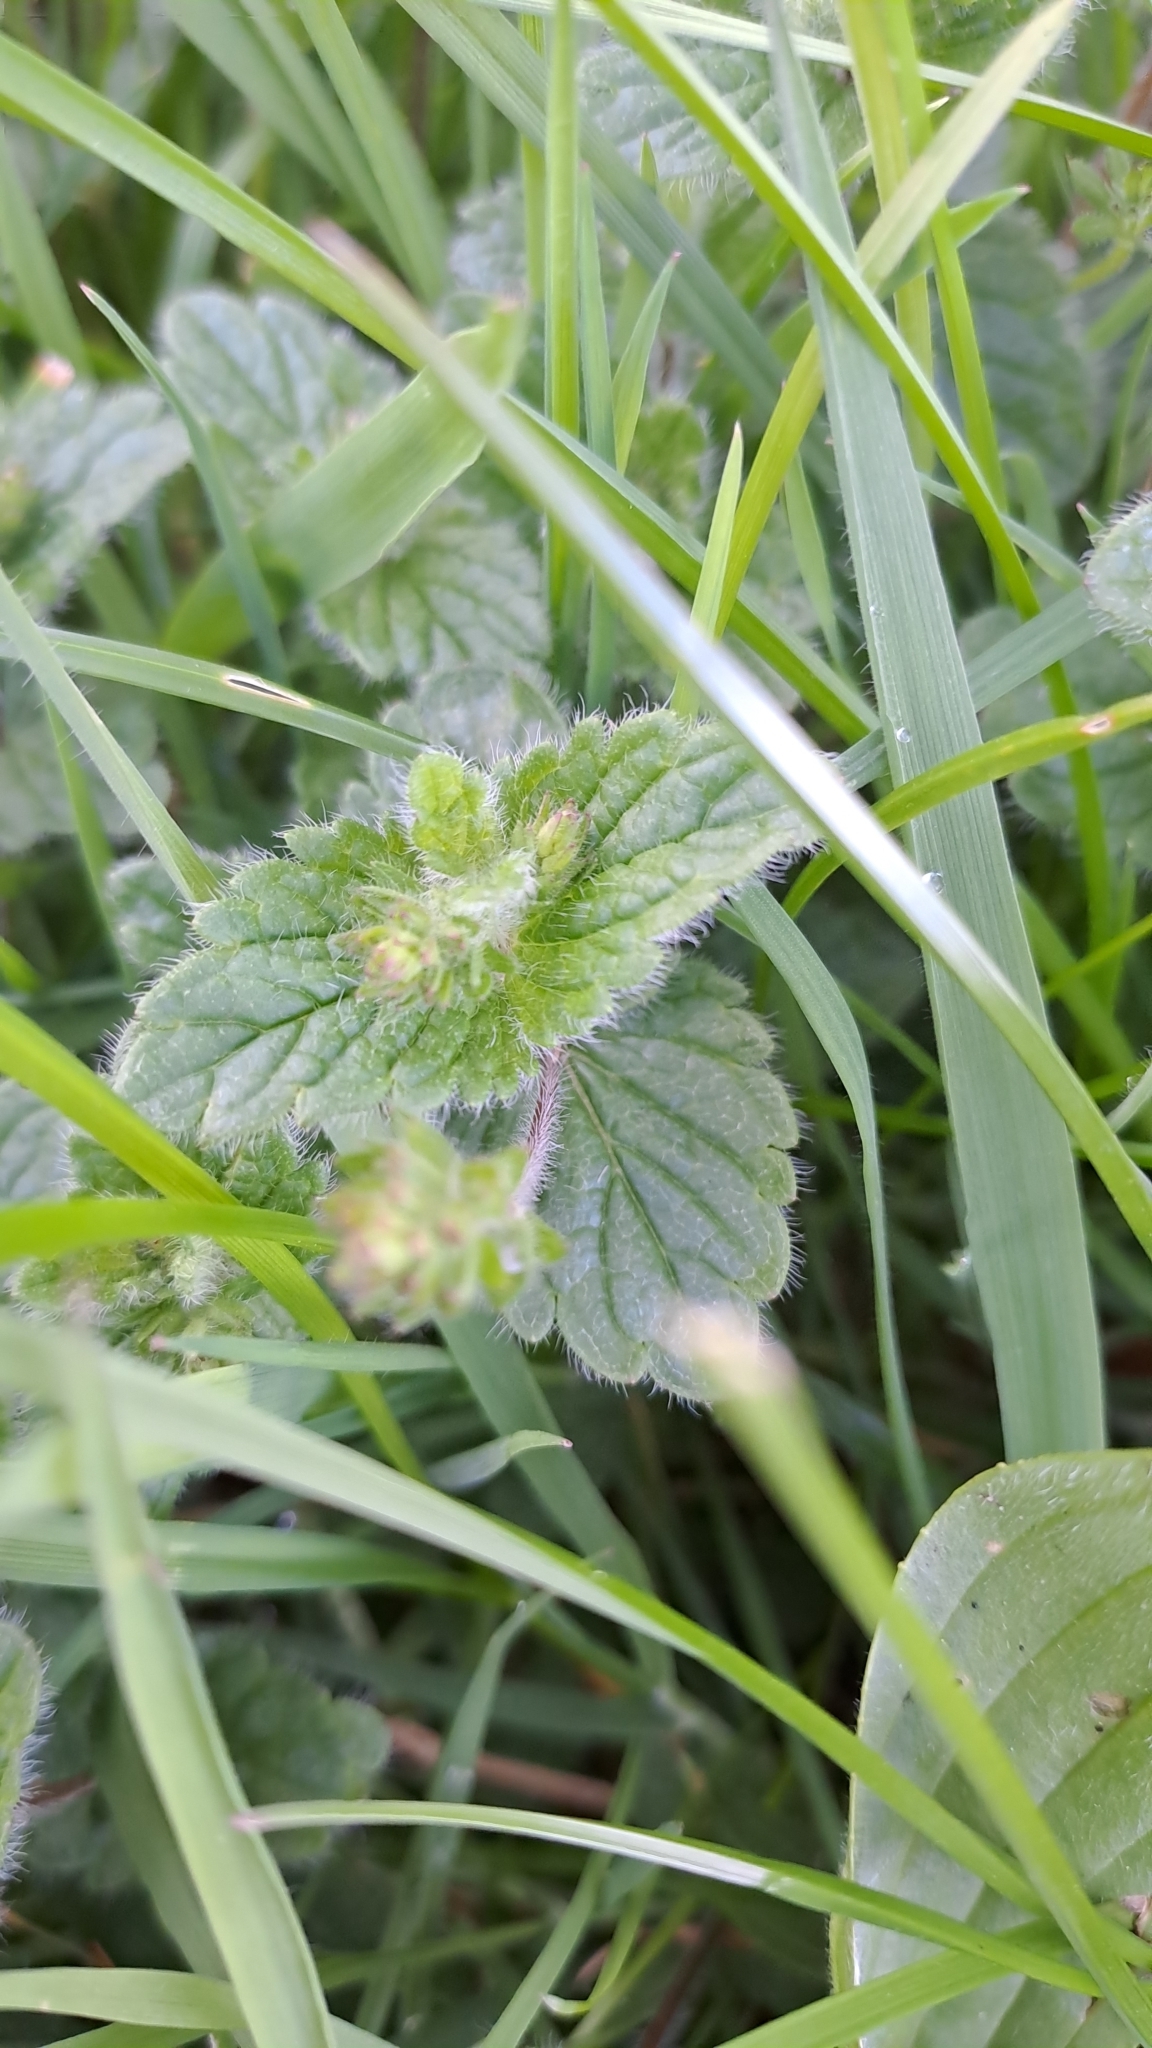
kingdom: Plantae
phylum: Tracheophyta
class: Magnoliopsida
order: Lamiales
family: Plantaginaceae
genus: Veronica
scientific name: Veronica chamaedrys
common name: Germander speedwell
